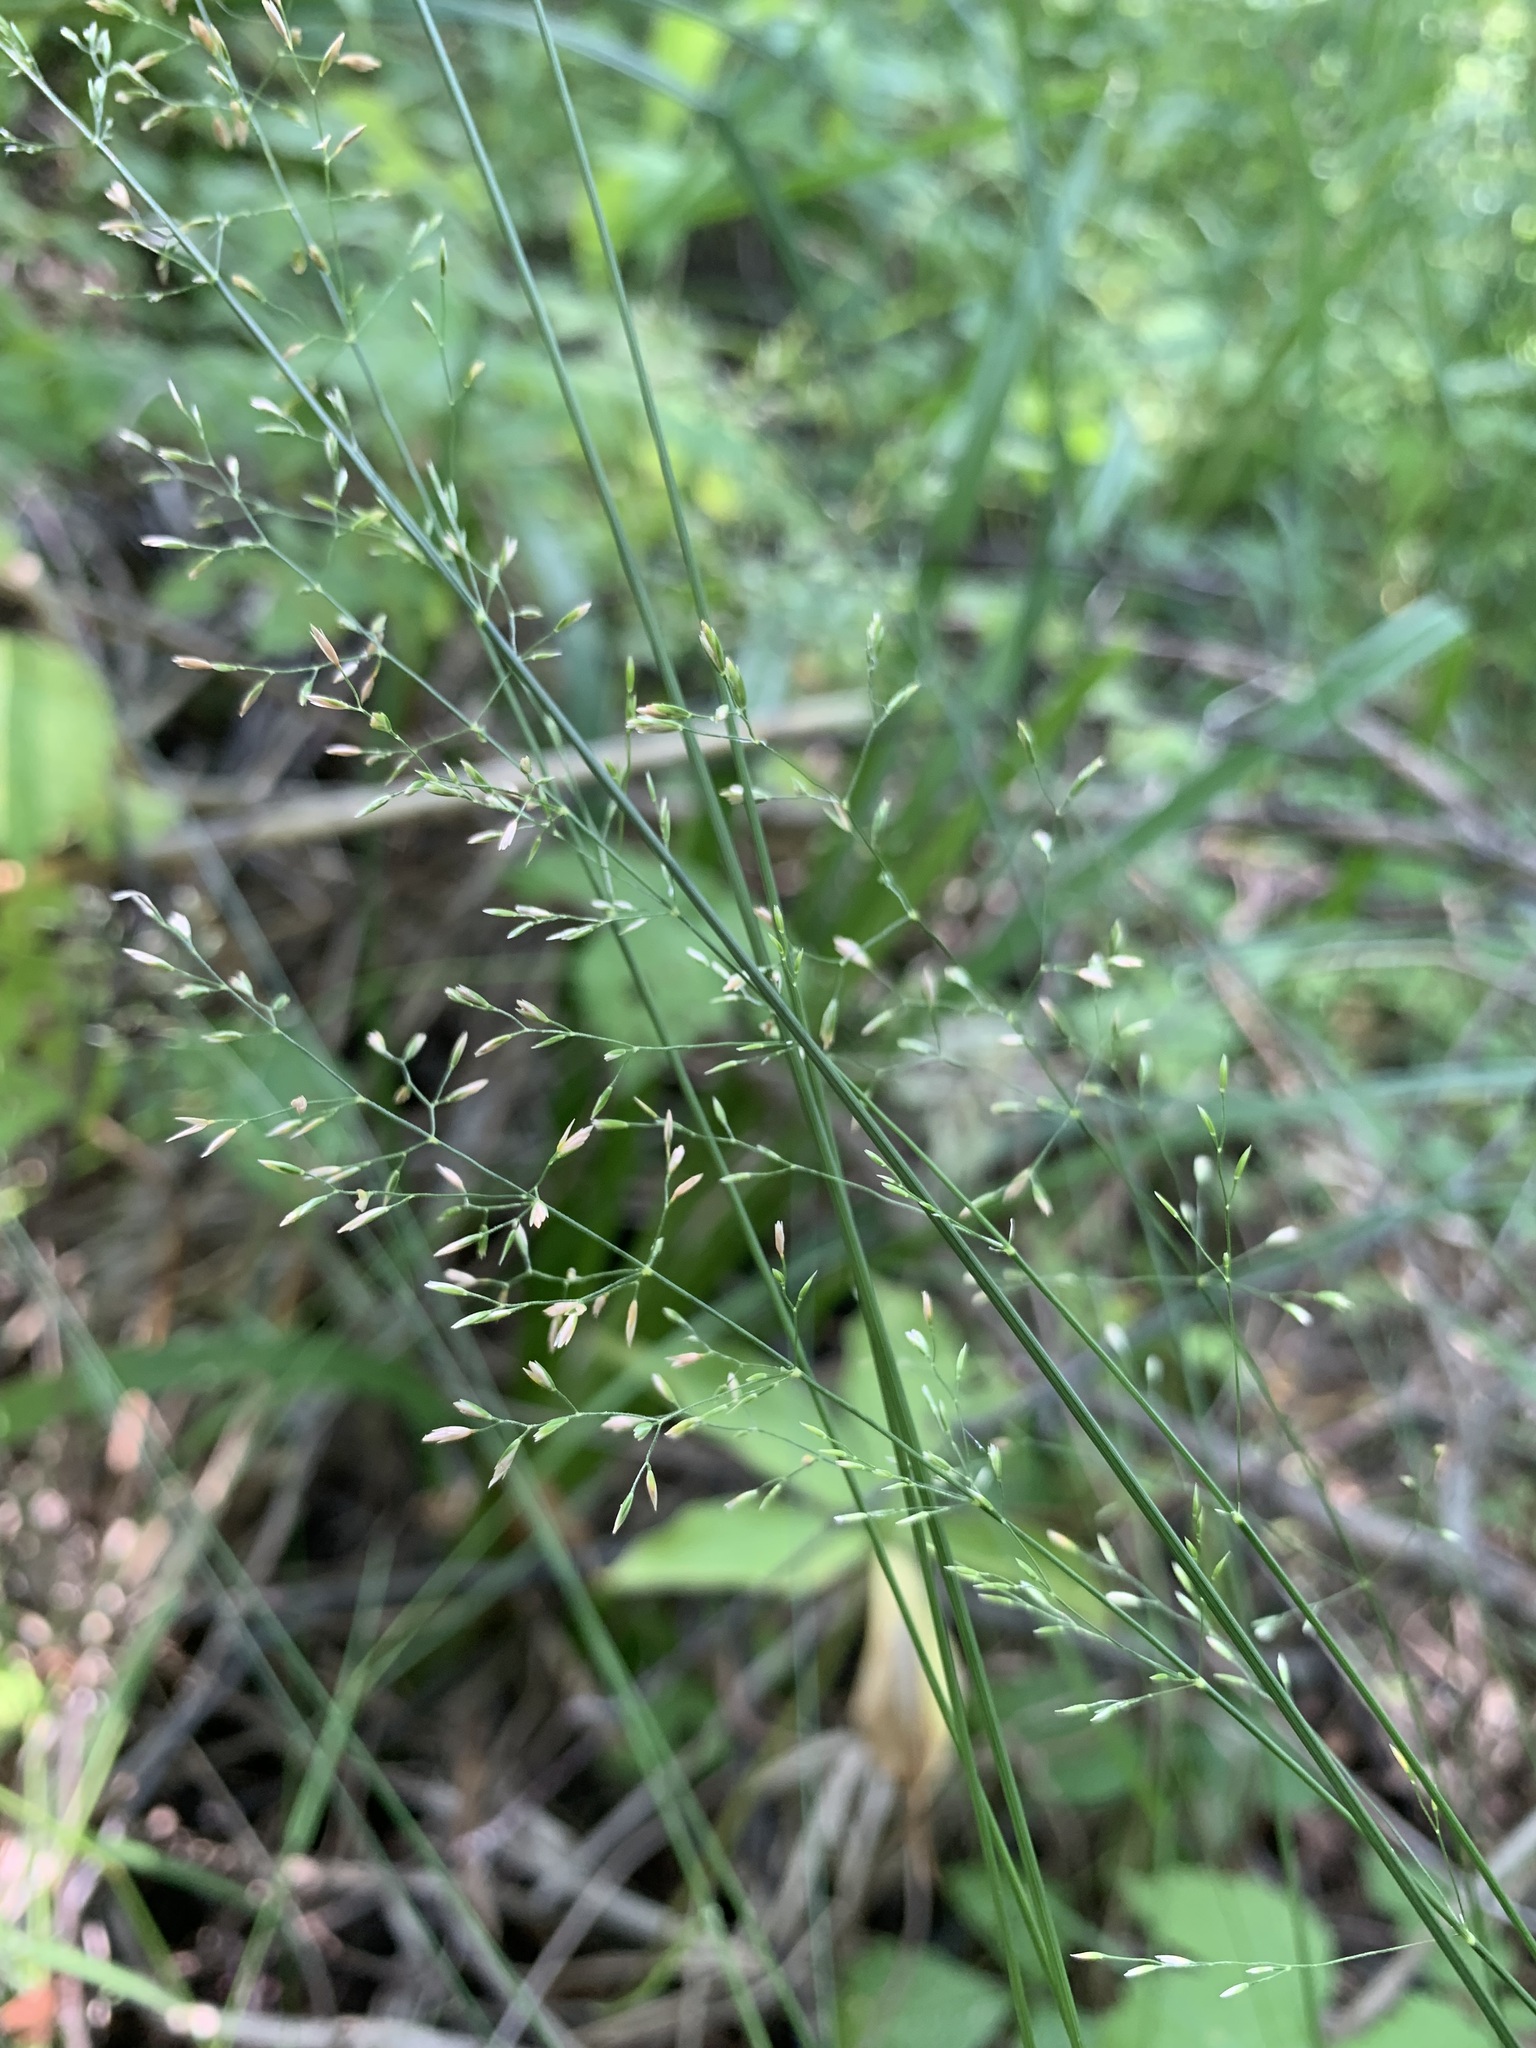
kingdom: Plantae
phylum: Tracheophyta
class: Liliopsida
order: Poales
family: Poaceae
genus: Poa
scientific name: Poa palustris
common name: Swamp meadow-grass
